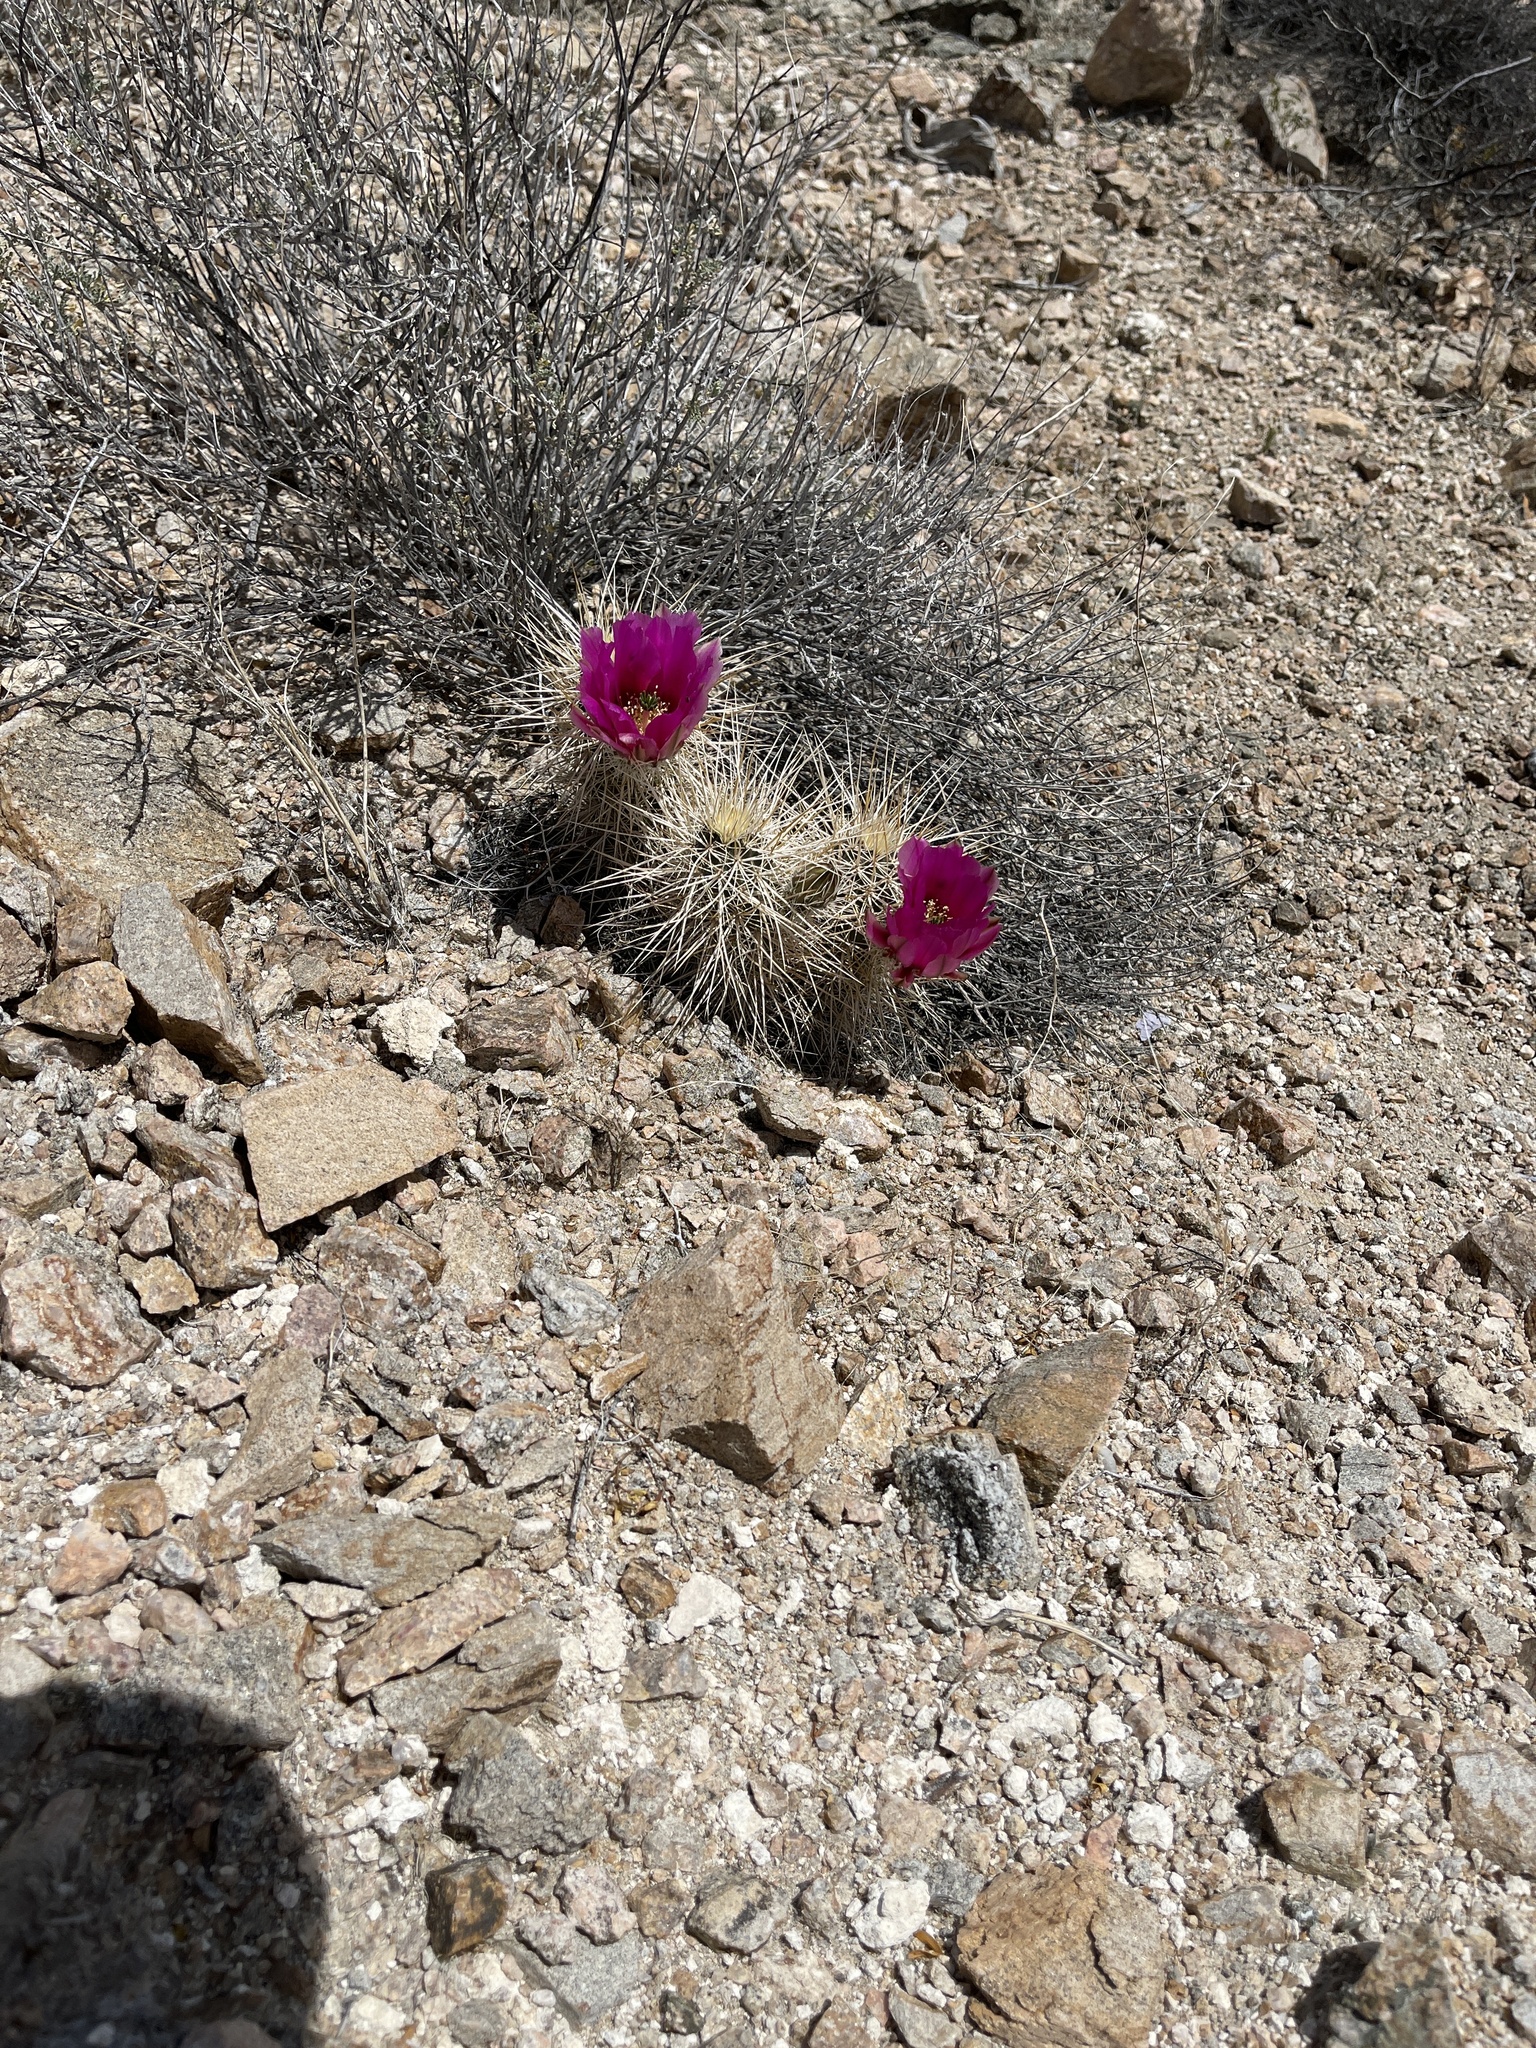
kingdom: Plantae
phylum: Tracheophyta
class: Magnoliopsida
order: Caryophyllales
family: Cactaceae
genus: Echinocereus
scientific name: Echinocereus engelmannii
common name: Engelmann's hedgehog cactus
